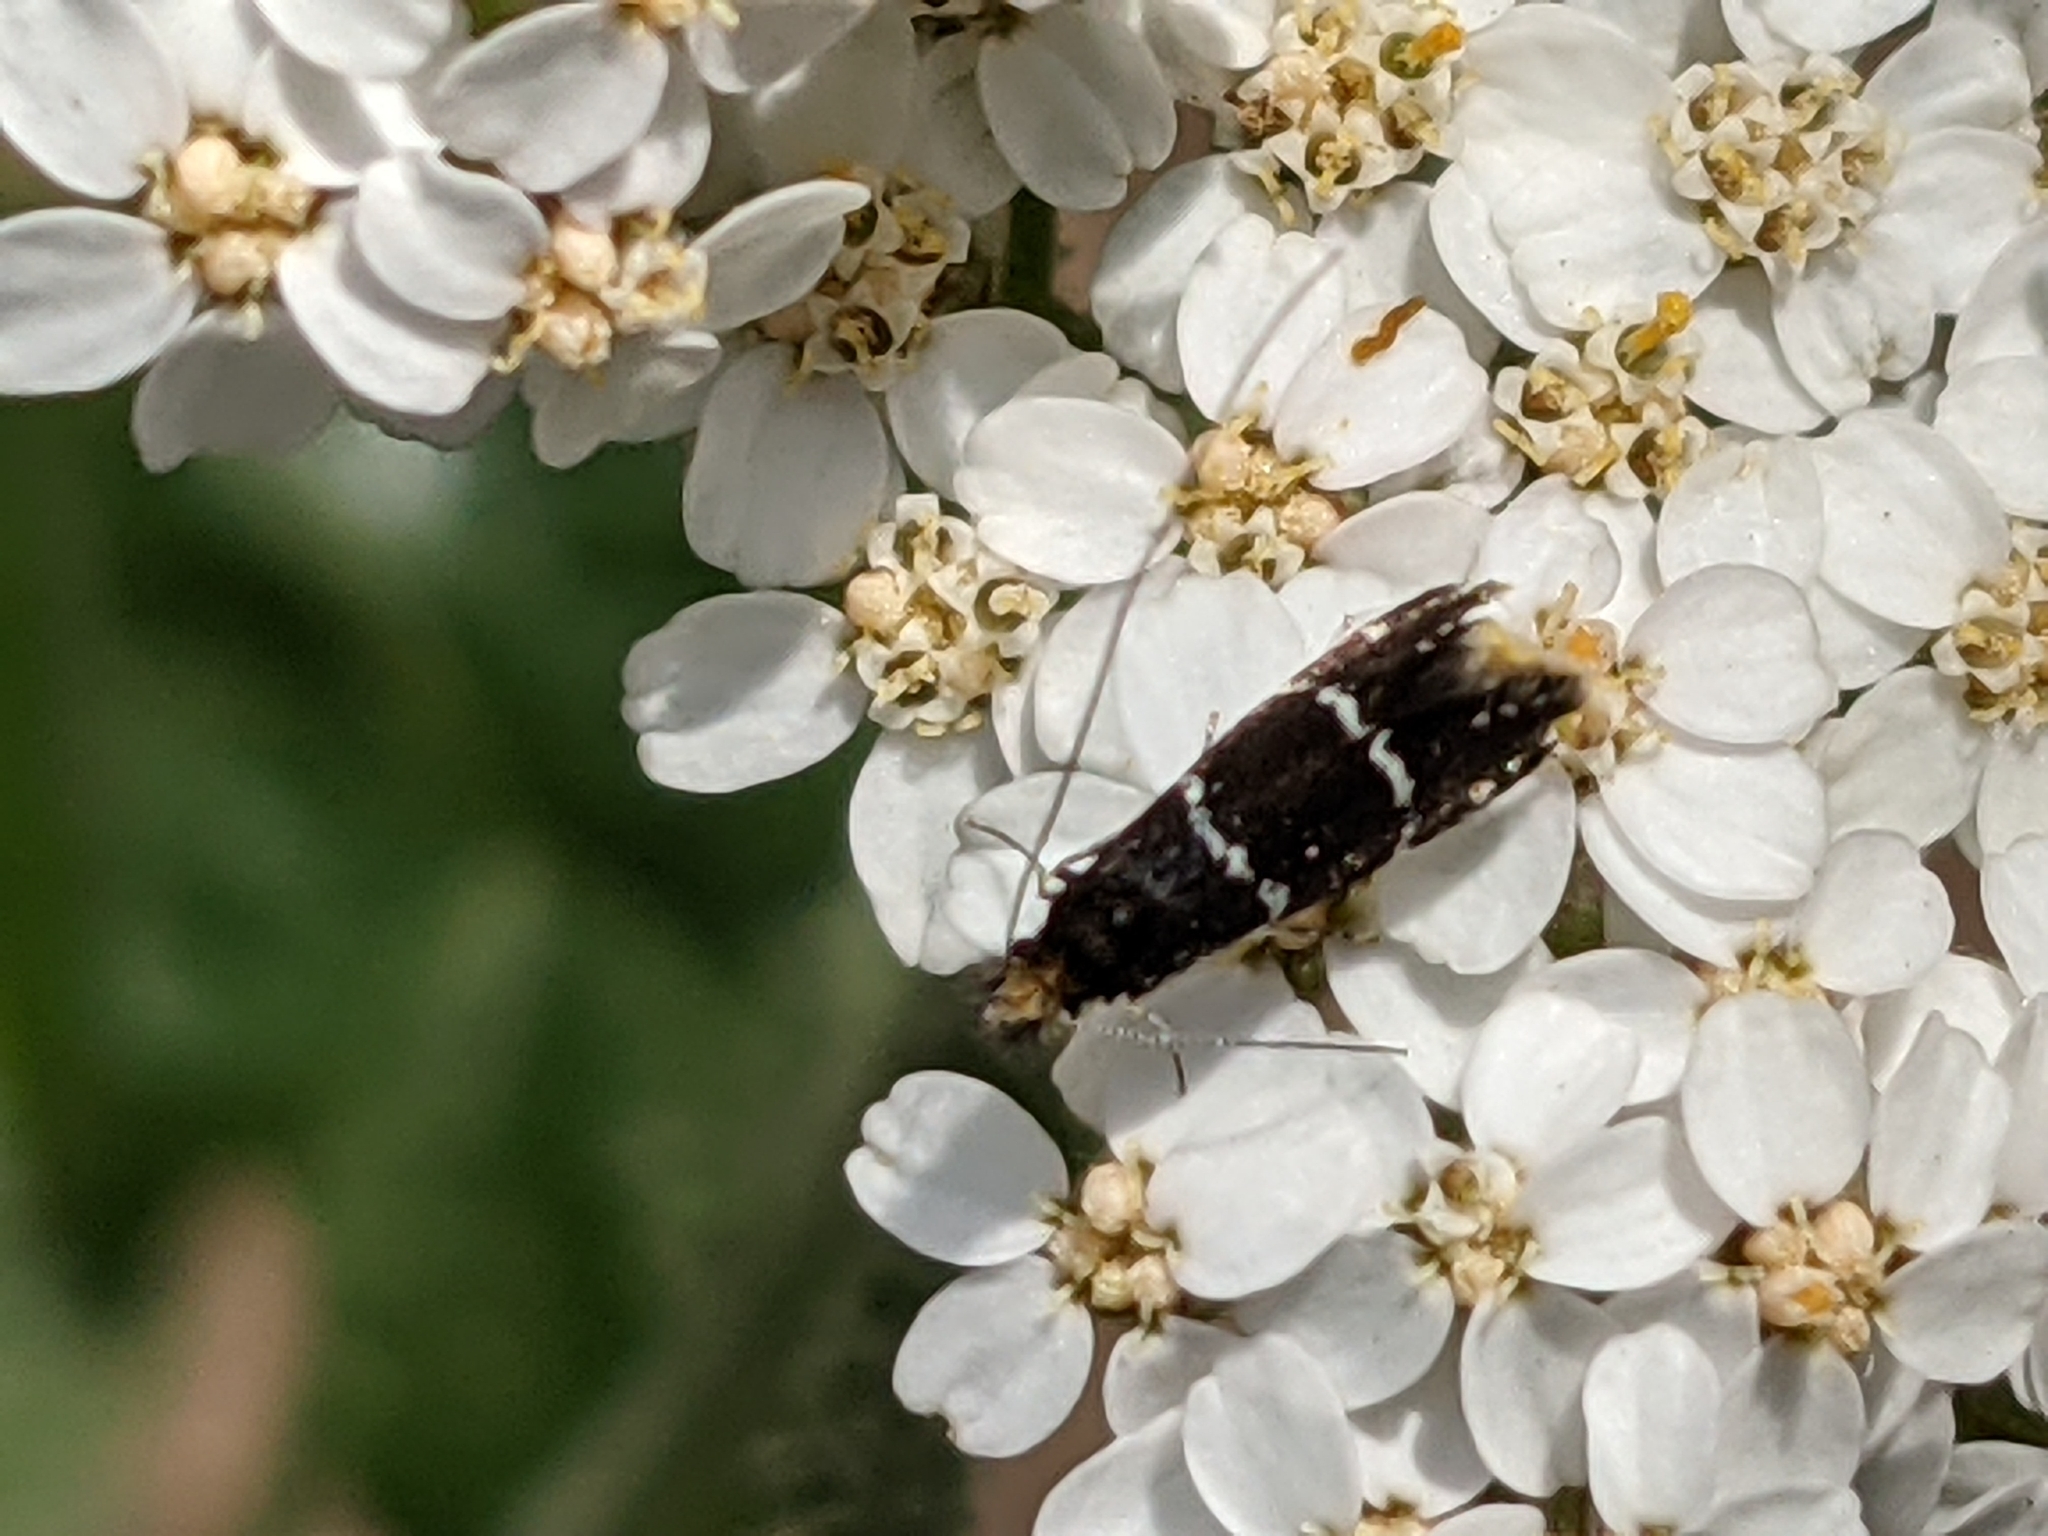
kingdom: Animalia
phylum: Arthropoda
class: Insecta
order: Lepidoptera
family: Adelidae
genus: Adela
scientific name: Adela septentrionella
